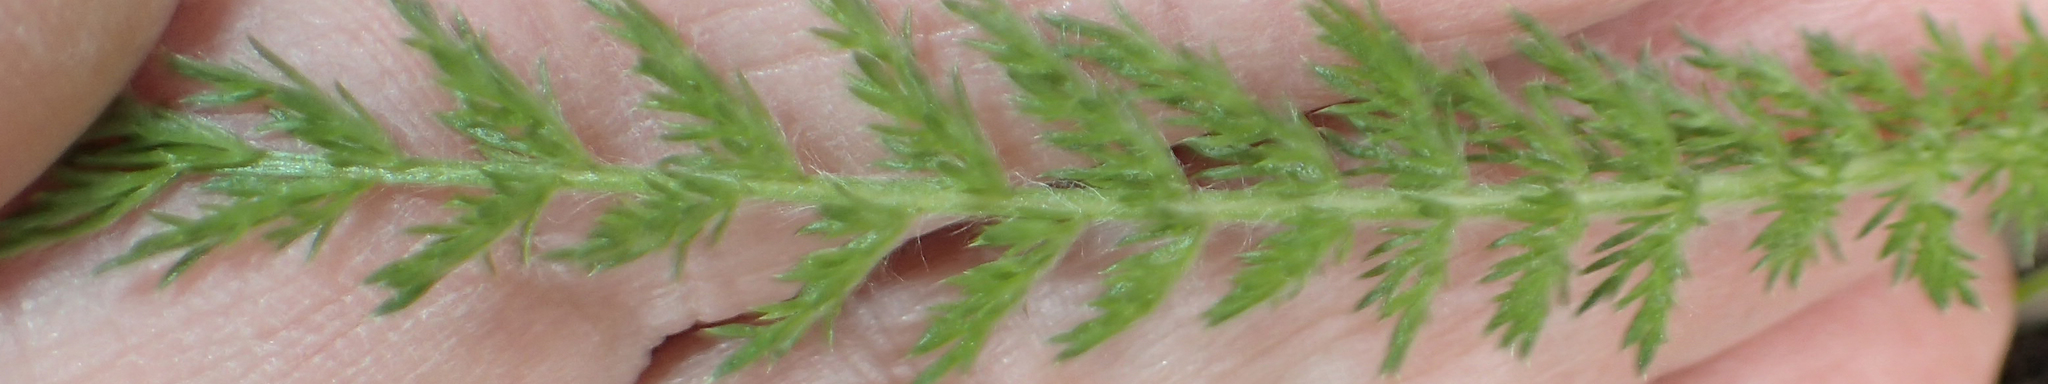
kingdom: Plantae
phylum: Tracheophyta
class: Magnoliopsida
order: Asterales
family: Asteraceae
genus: Achillea
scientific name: Achillea millefolium
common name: Yarrow
